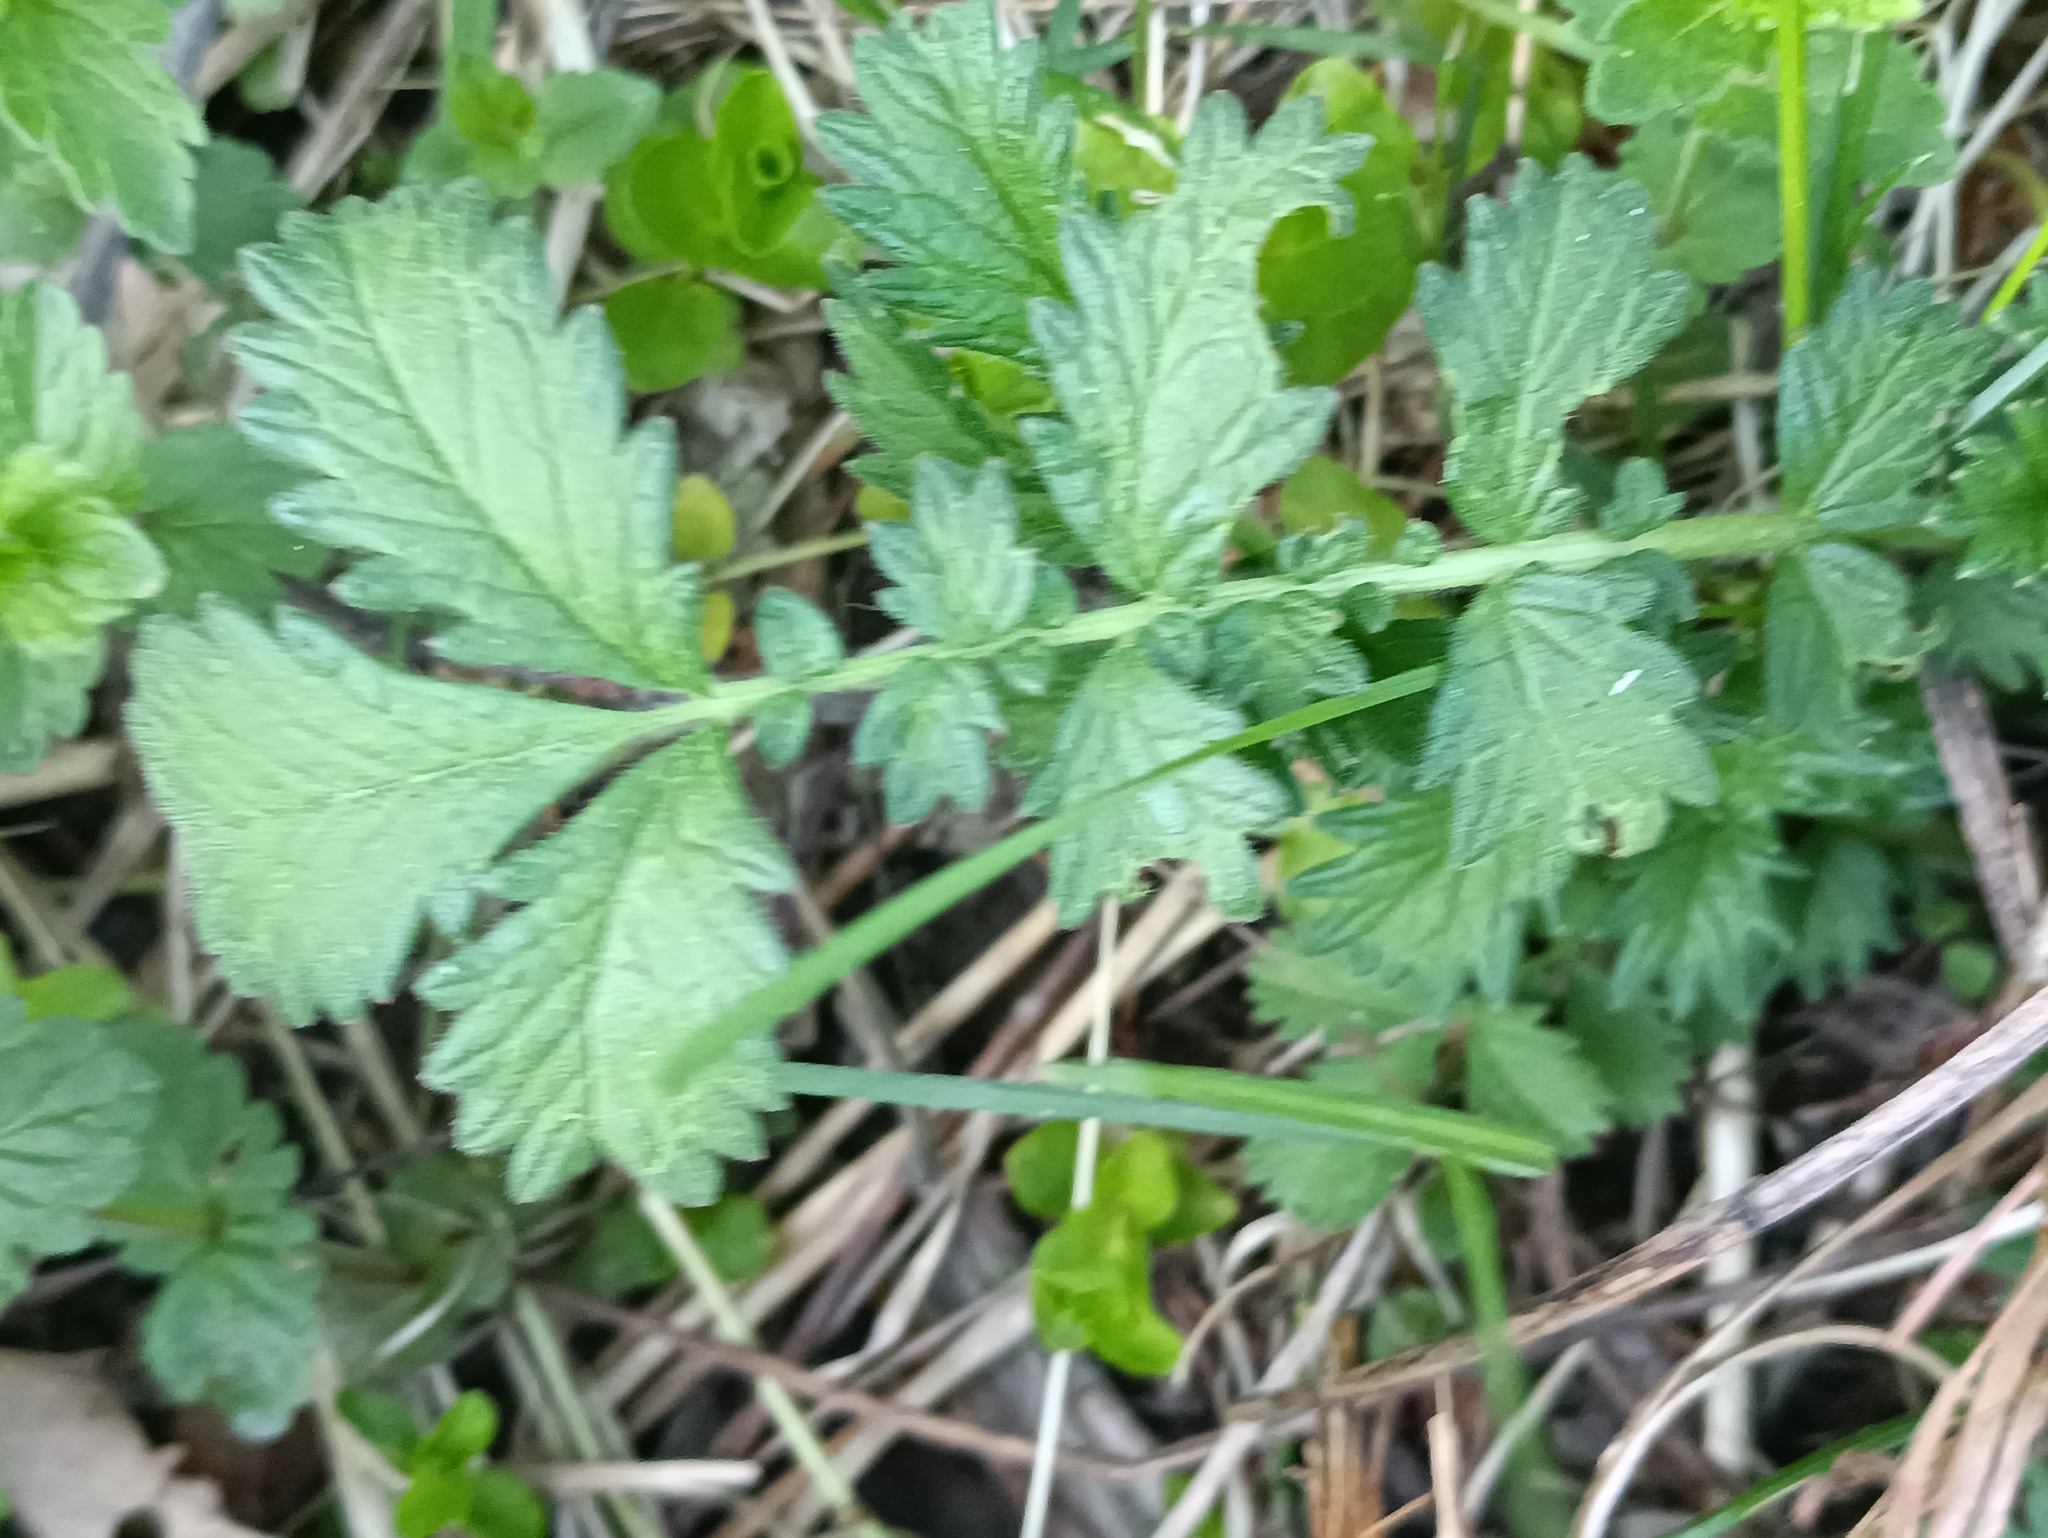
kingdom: Plantae
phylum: Tracheophyta
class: Magnoliopsida
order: Rosales
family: Rosaceae
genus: Agrimonia
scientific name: Agrimonia eupatoria
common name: Agrimony
